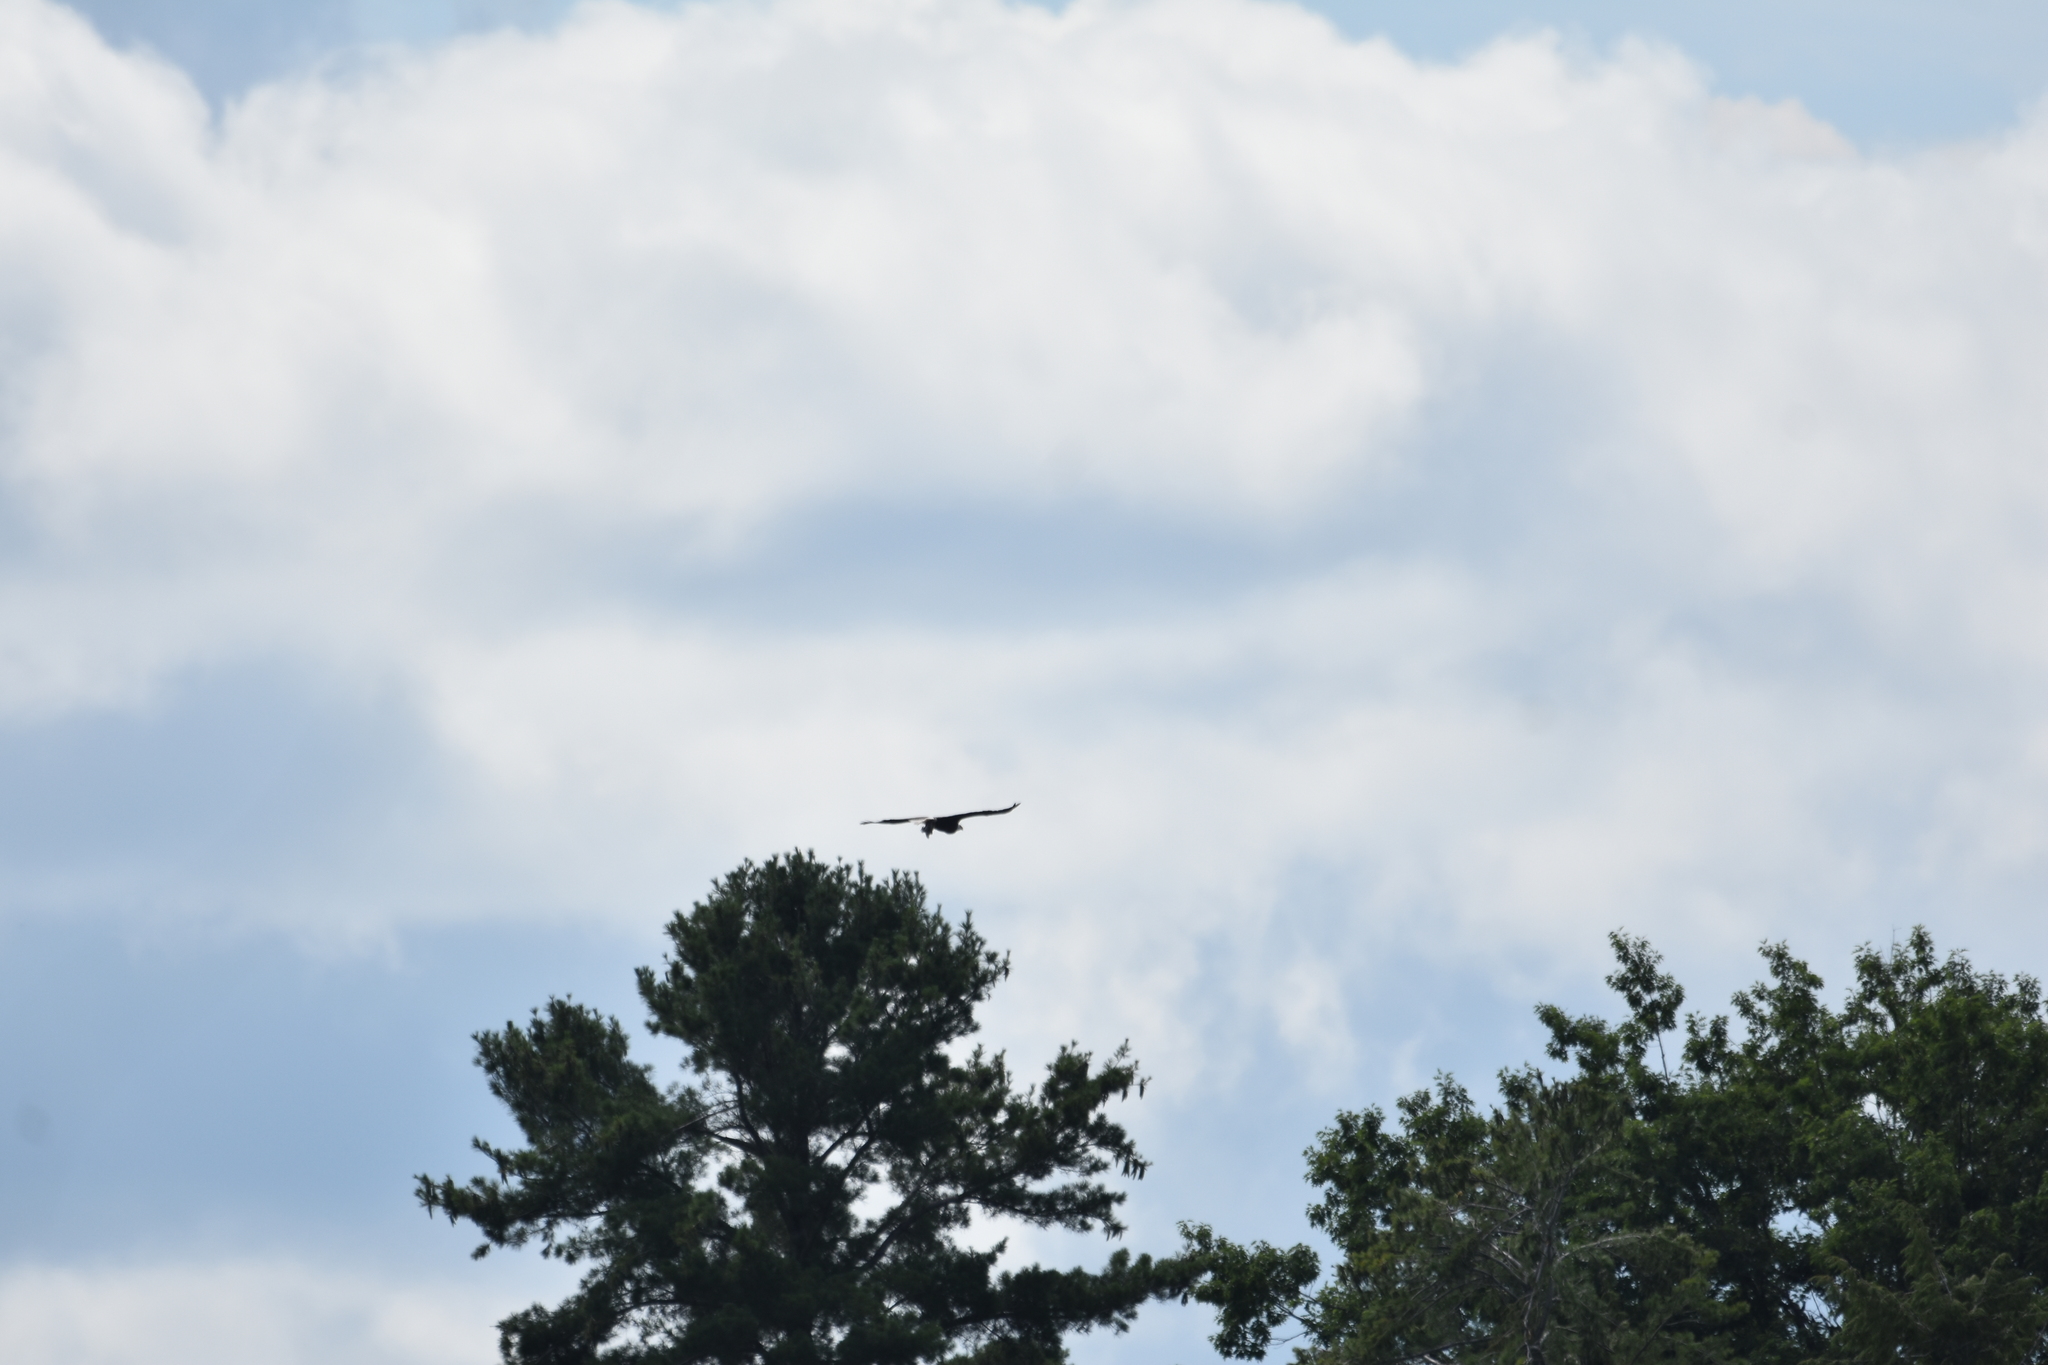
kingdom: Animalia
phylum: Chordata
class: Aves
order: Accipitriformes
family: Accipitridae
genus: Haliaeetus
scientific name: Haliaeetus leucocephalus
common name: Bald eagle
